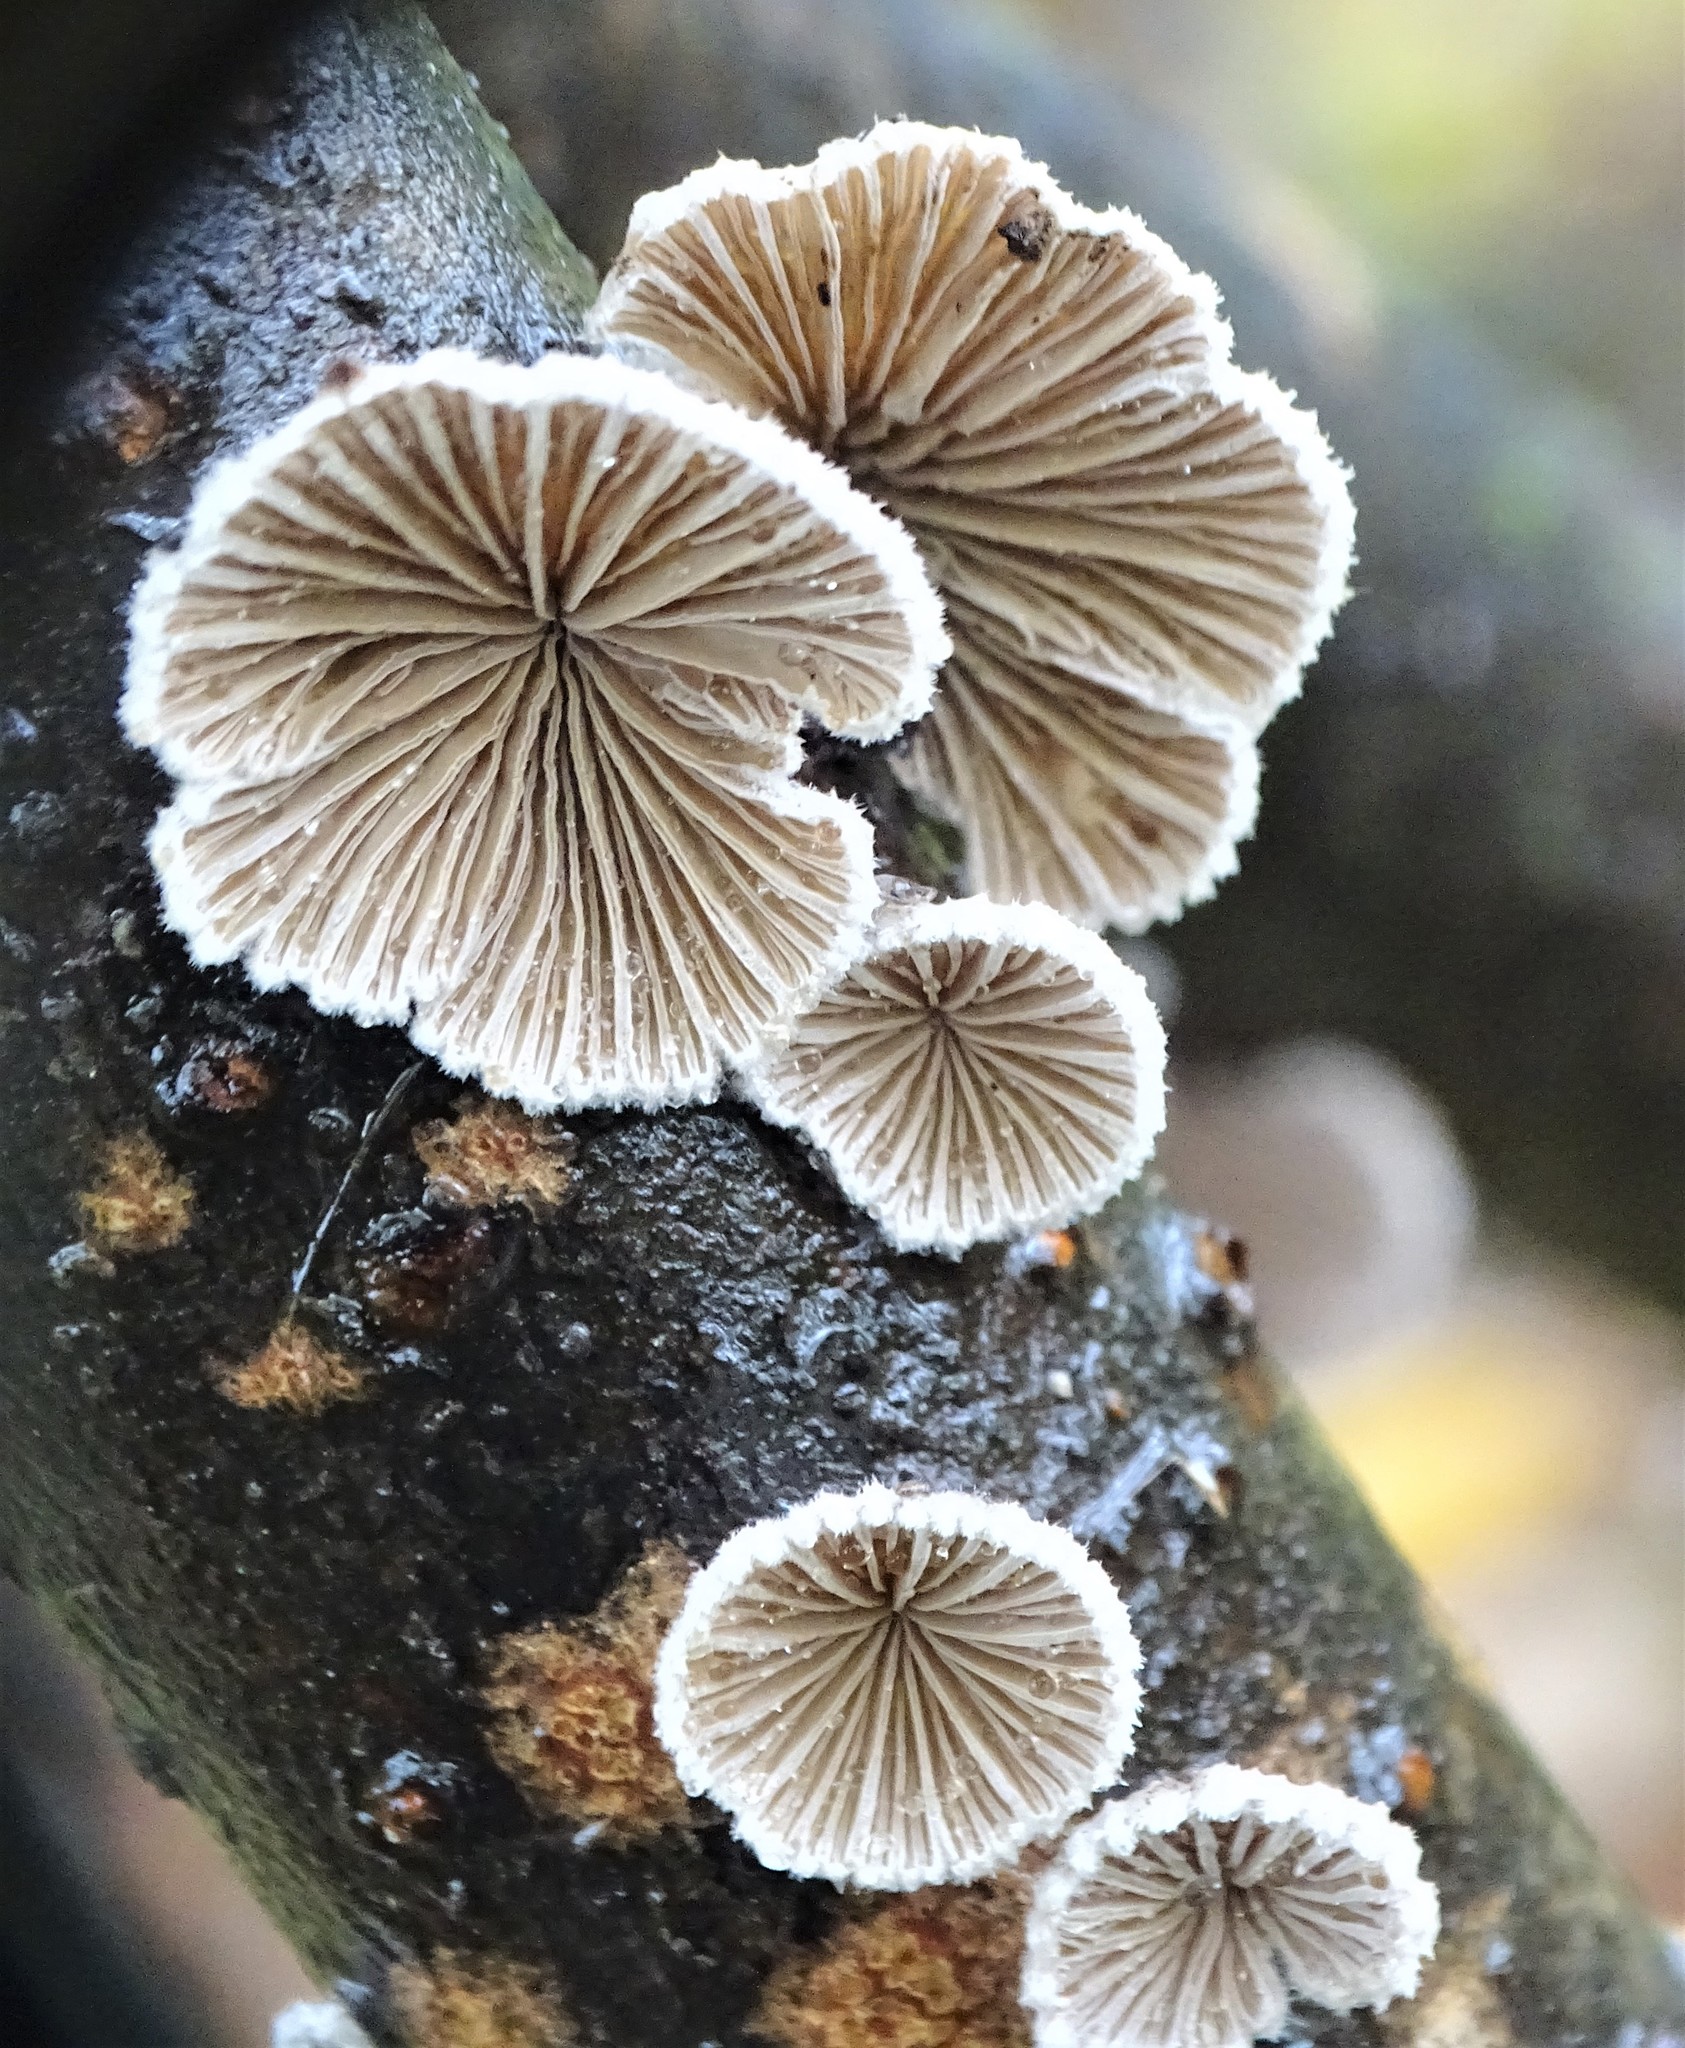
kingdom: Fungi
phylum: Basidiomycota
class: Agaricomycetes
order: Agaricales
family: Schizophyllaceae
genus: Schizophyllum
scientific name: Schizophyllum commune
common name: Common porecrust
